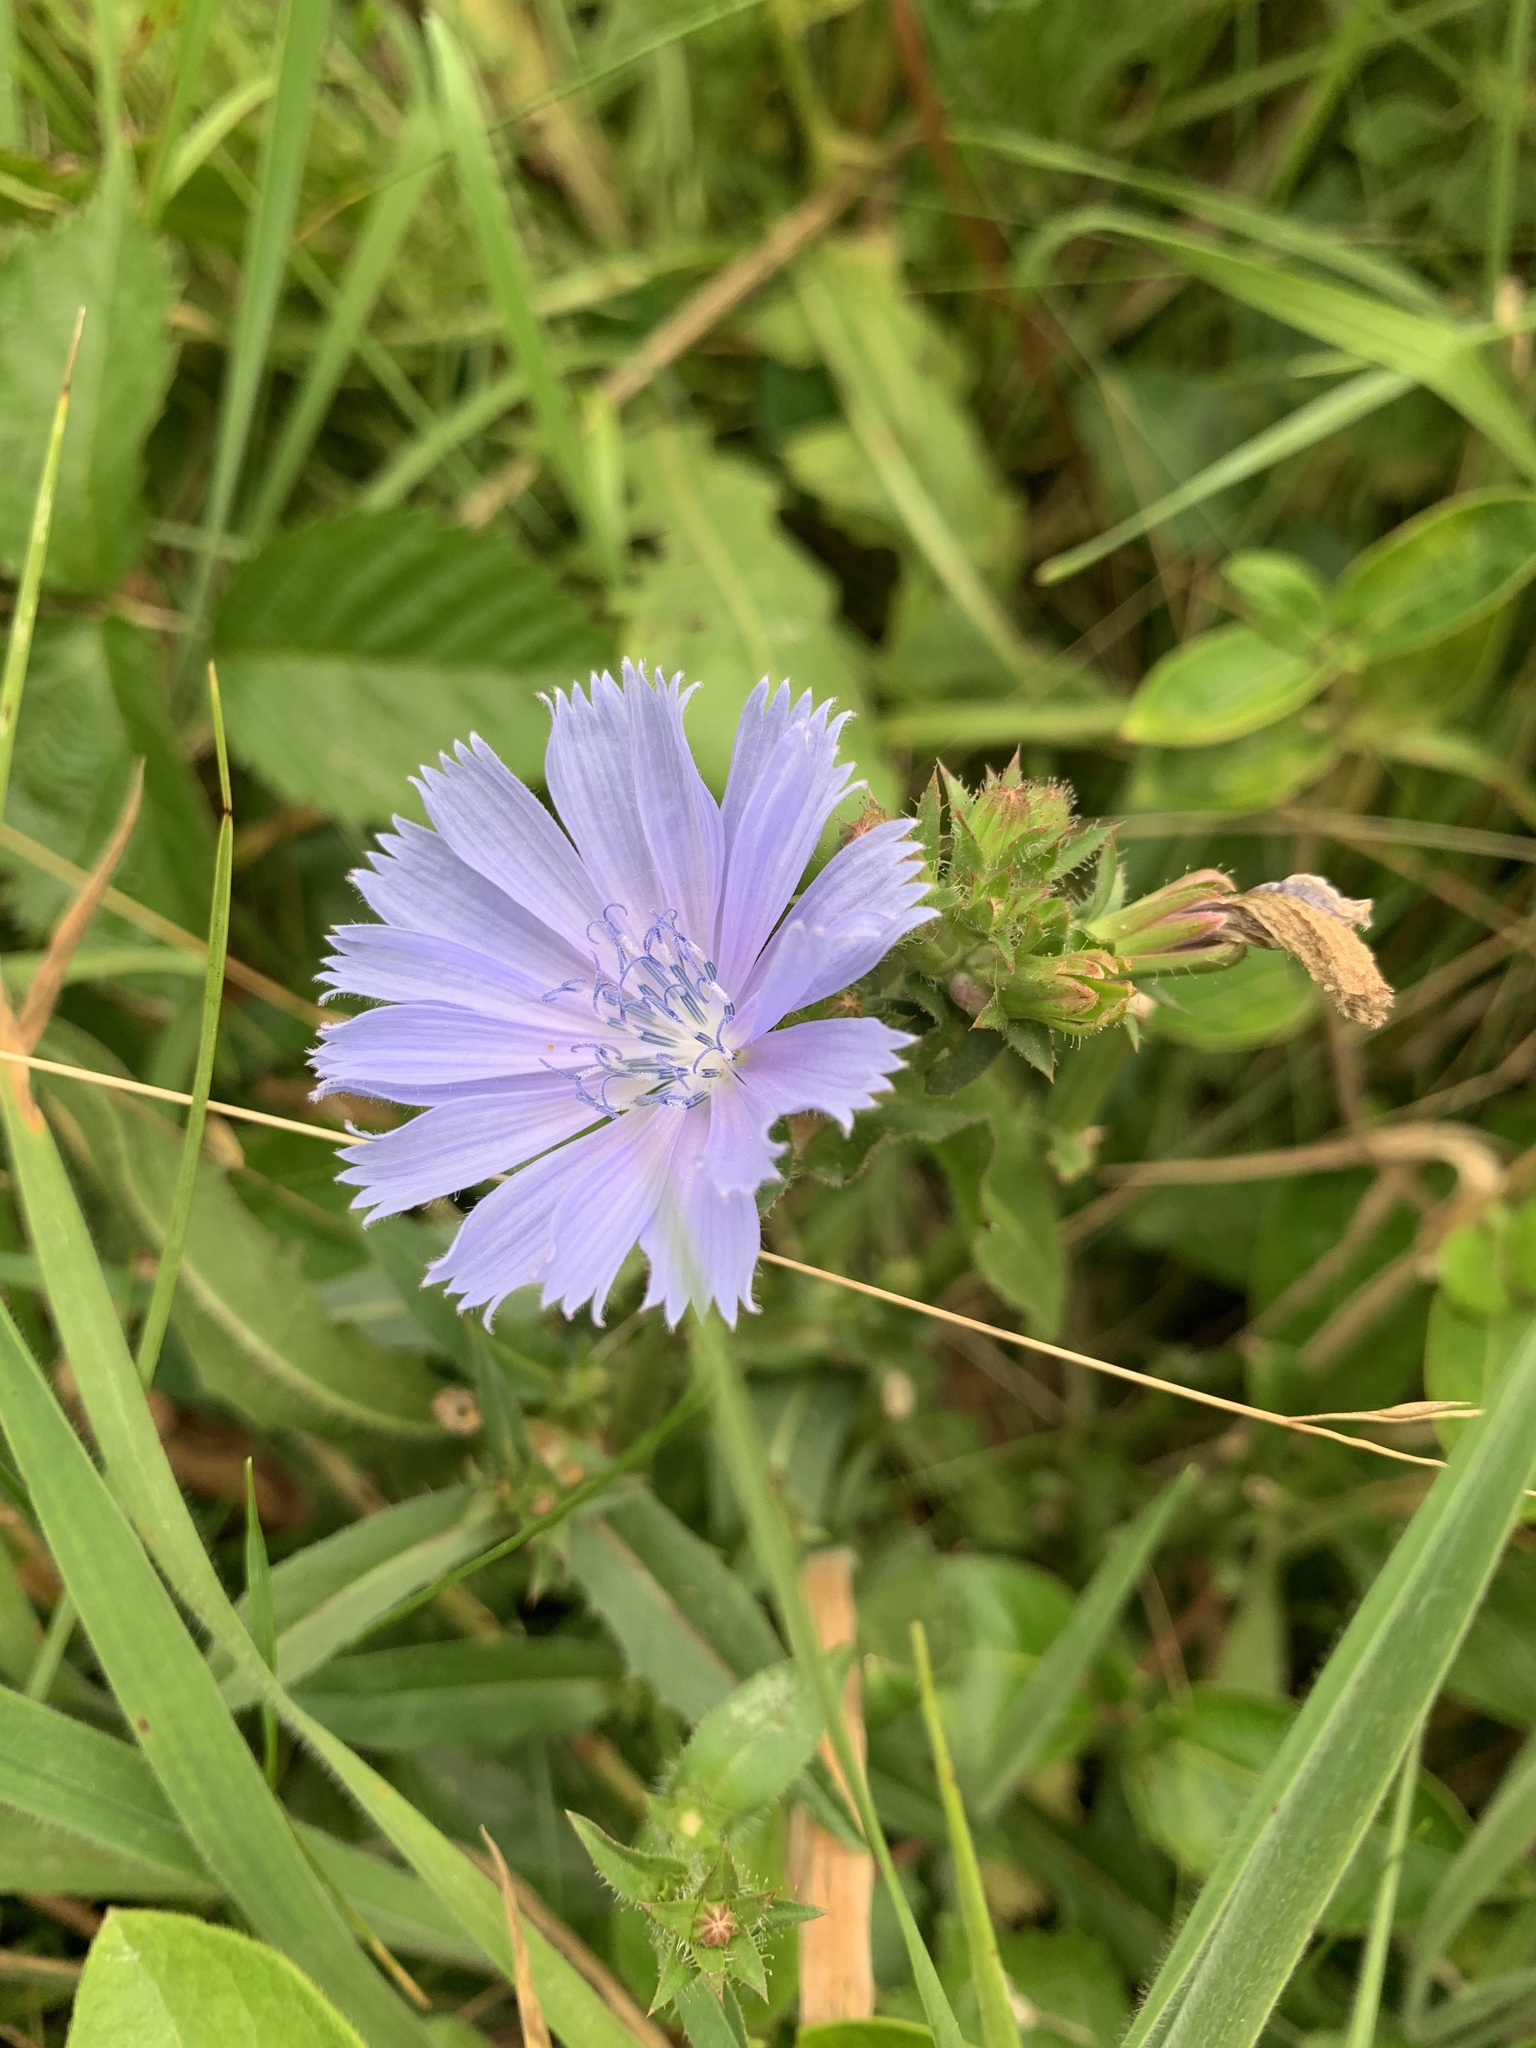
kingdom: Plantae
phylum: Tracheophyta
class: Magnoliopsida
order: Asterales
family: Asteraceae
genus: Cichorium
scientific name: Cichorium intybus
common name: Chicory
